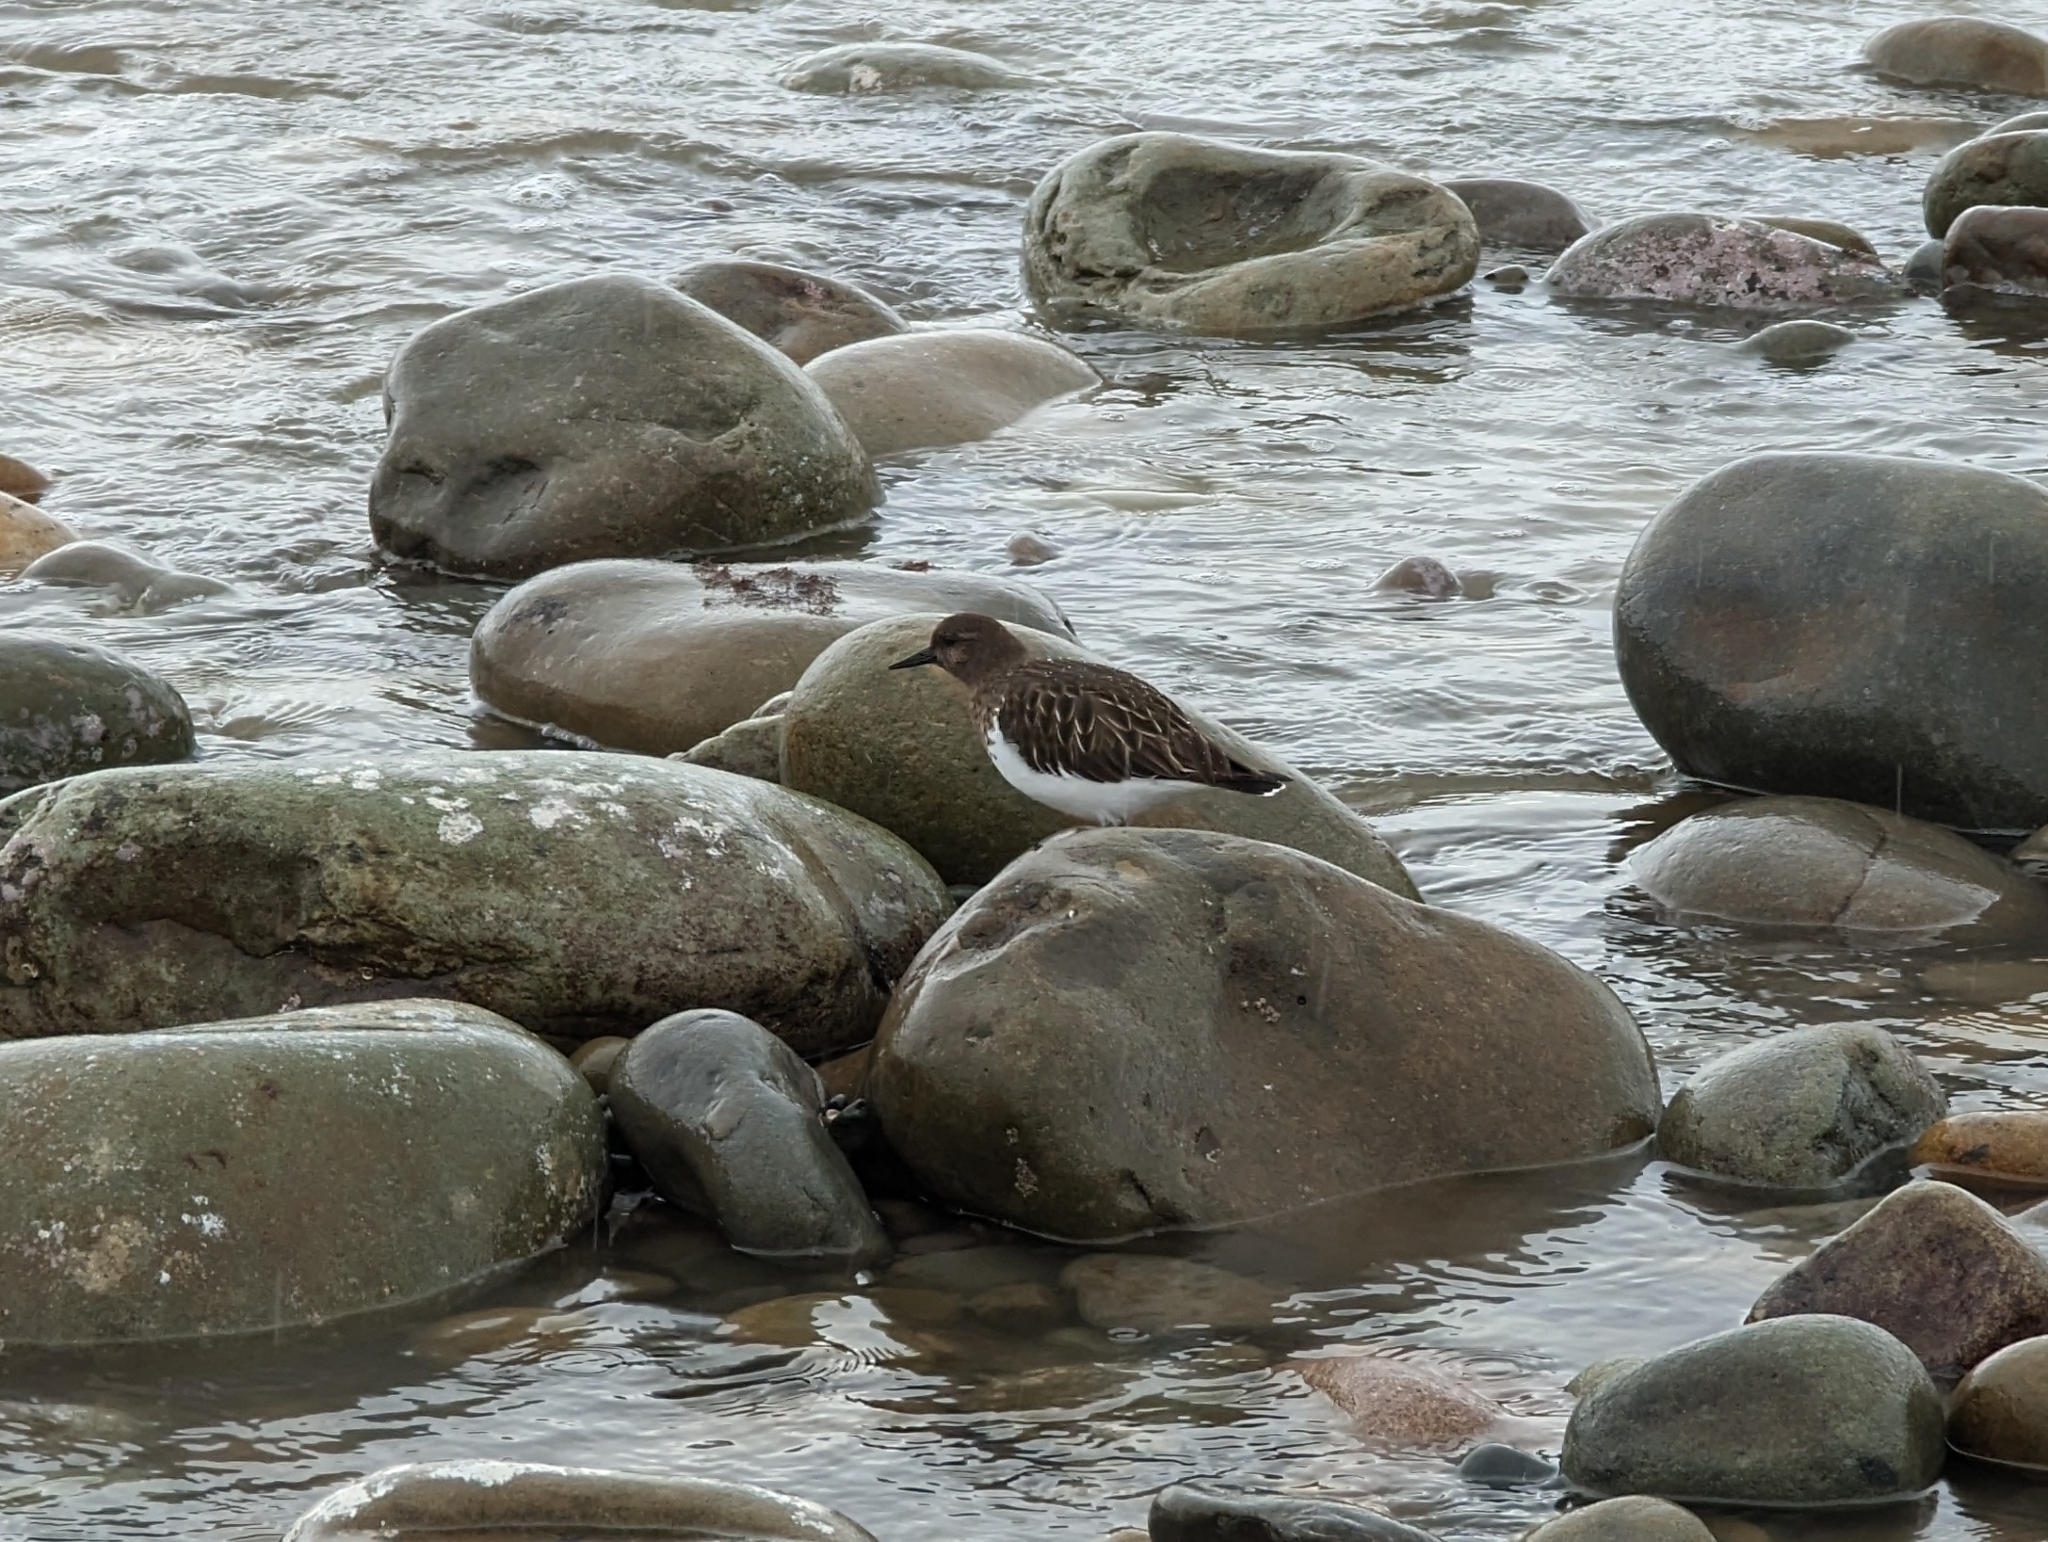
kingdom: Animalia
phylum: Chordata
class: Aves
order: Charadriiformes
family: Scolopacidae
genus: Arenaria
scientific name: Arenaria melanocephala
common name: Black turnstone
